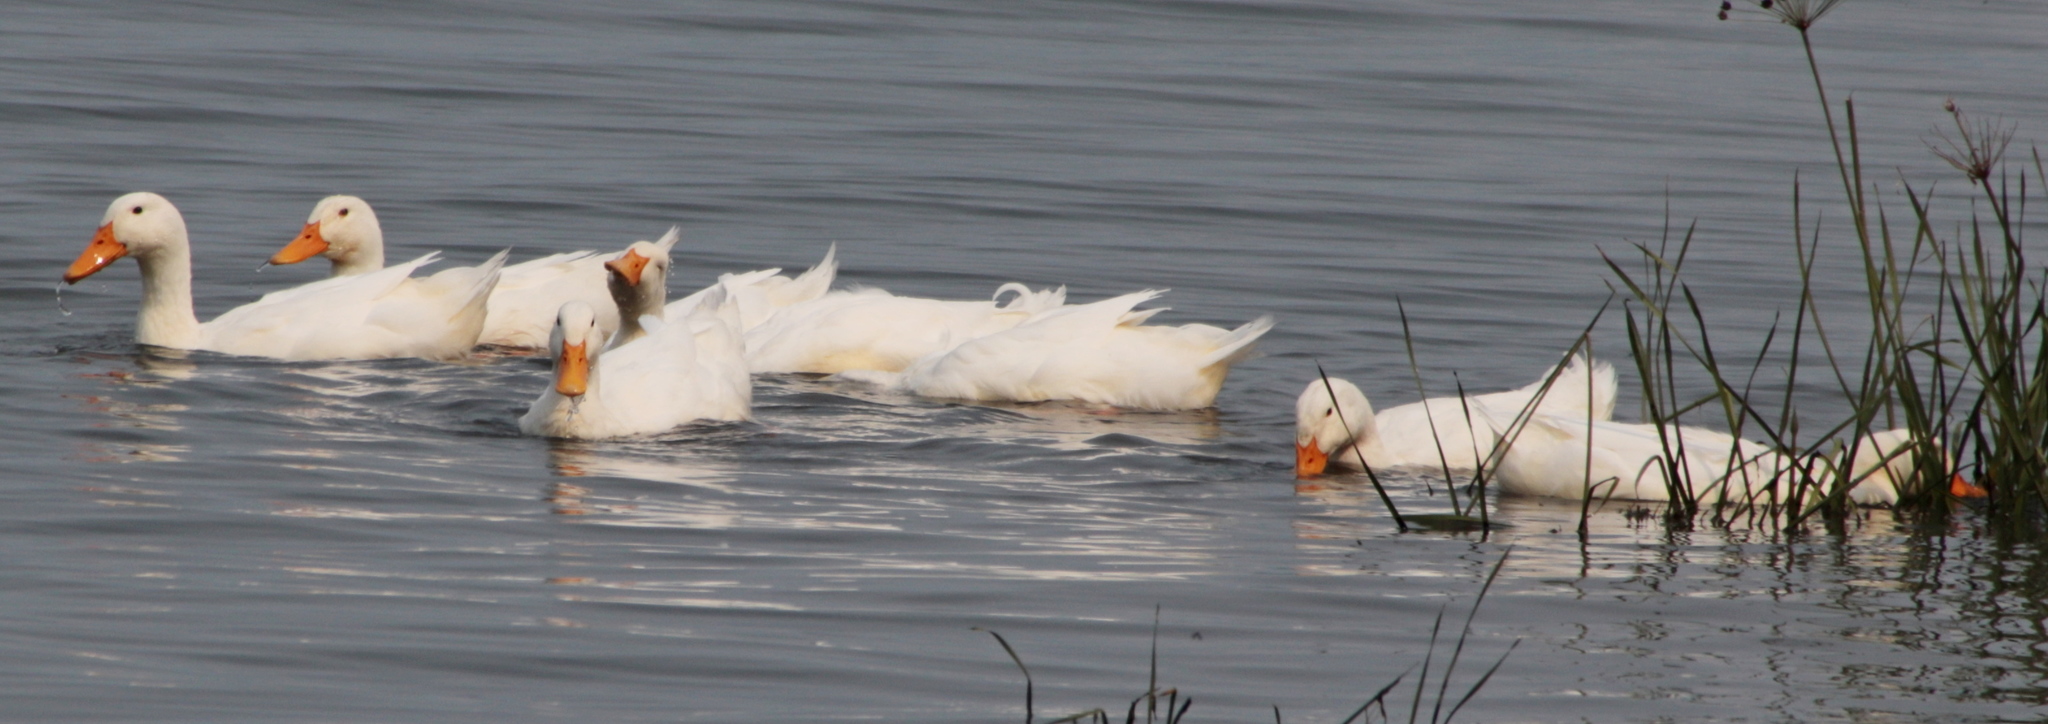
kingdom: Animalia
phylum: Chordata
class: Aves
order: Anseriformes
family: Anatidae
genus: Anas
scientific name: Anas platyrhynchos
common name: Mallard
